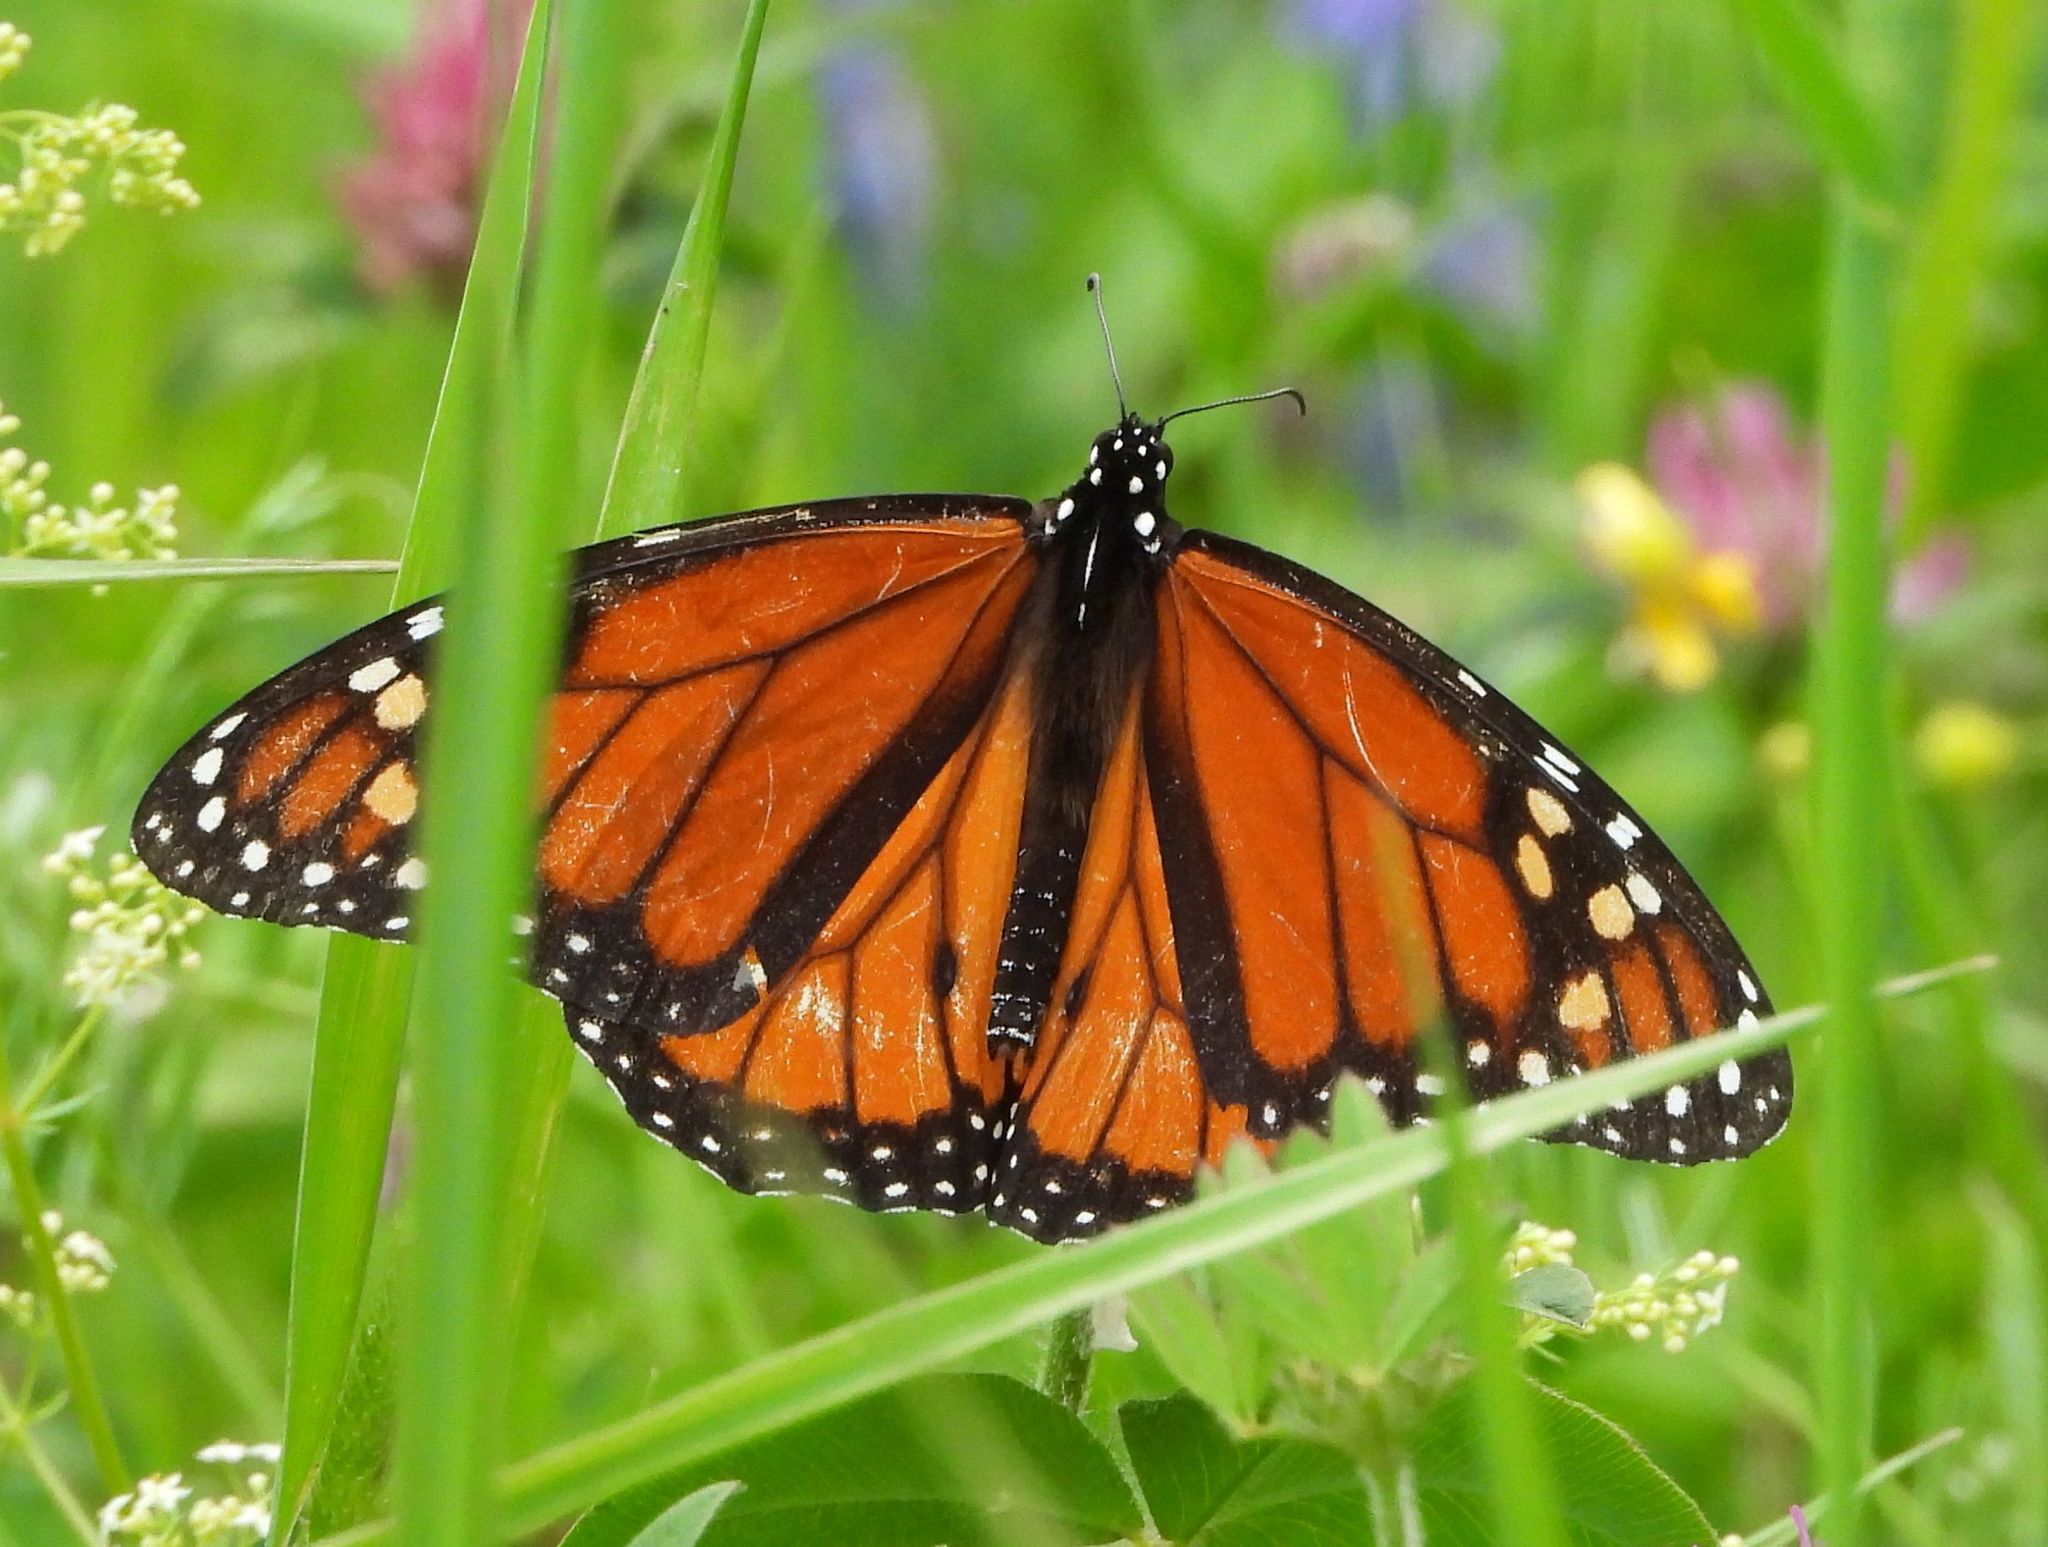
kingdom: Animalia
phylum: Arthropoda
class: Insecta
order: Lepidoptera
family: Nymphalidae
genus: Danaus
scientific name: Danaus plexippus
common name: Monarch
